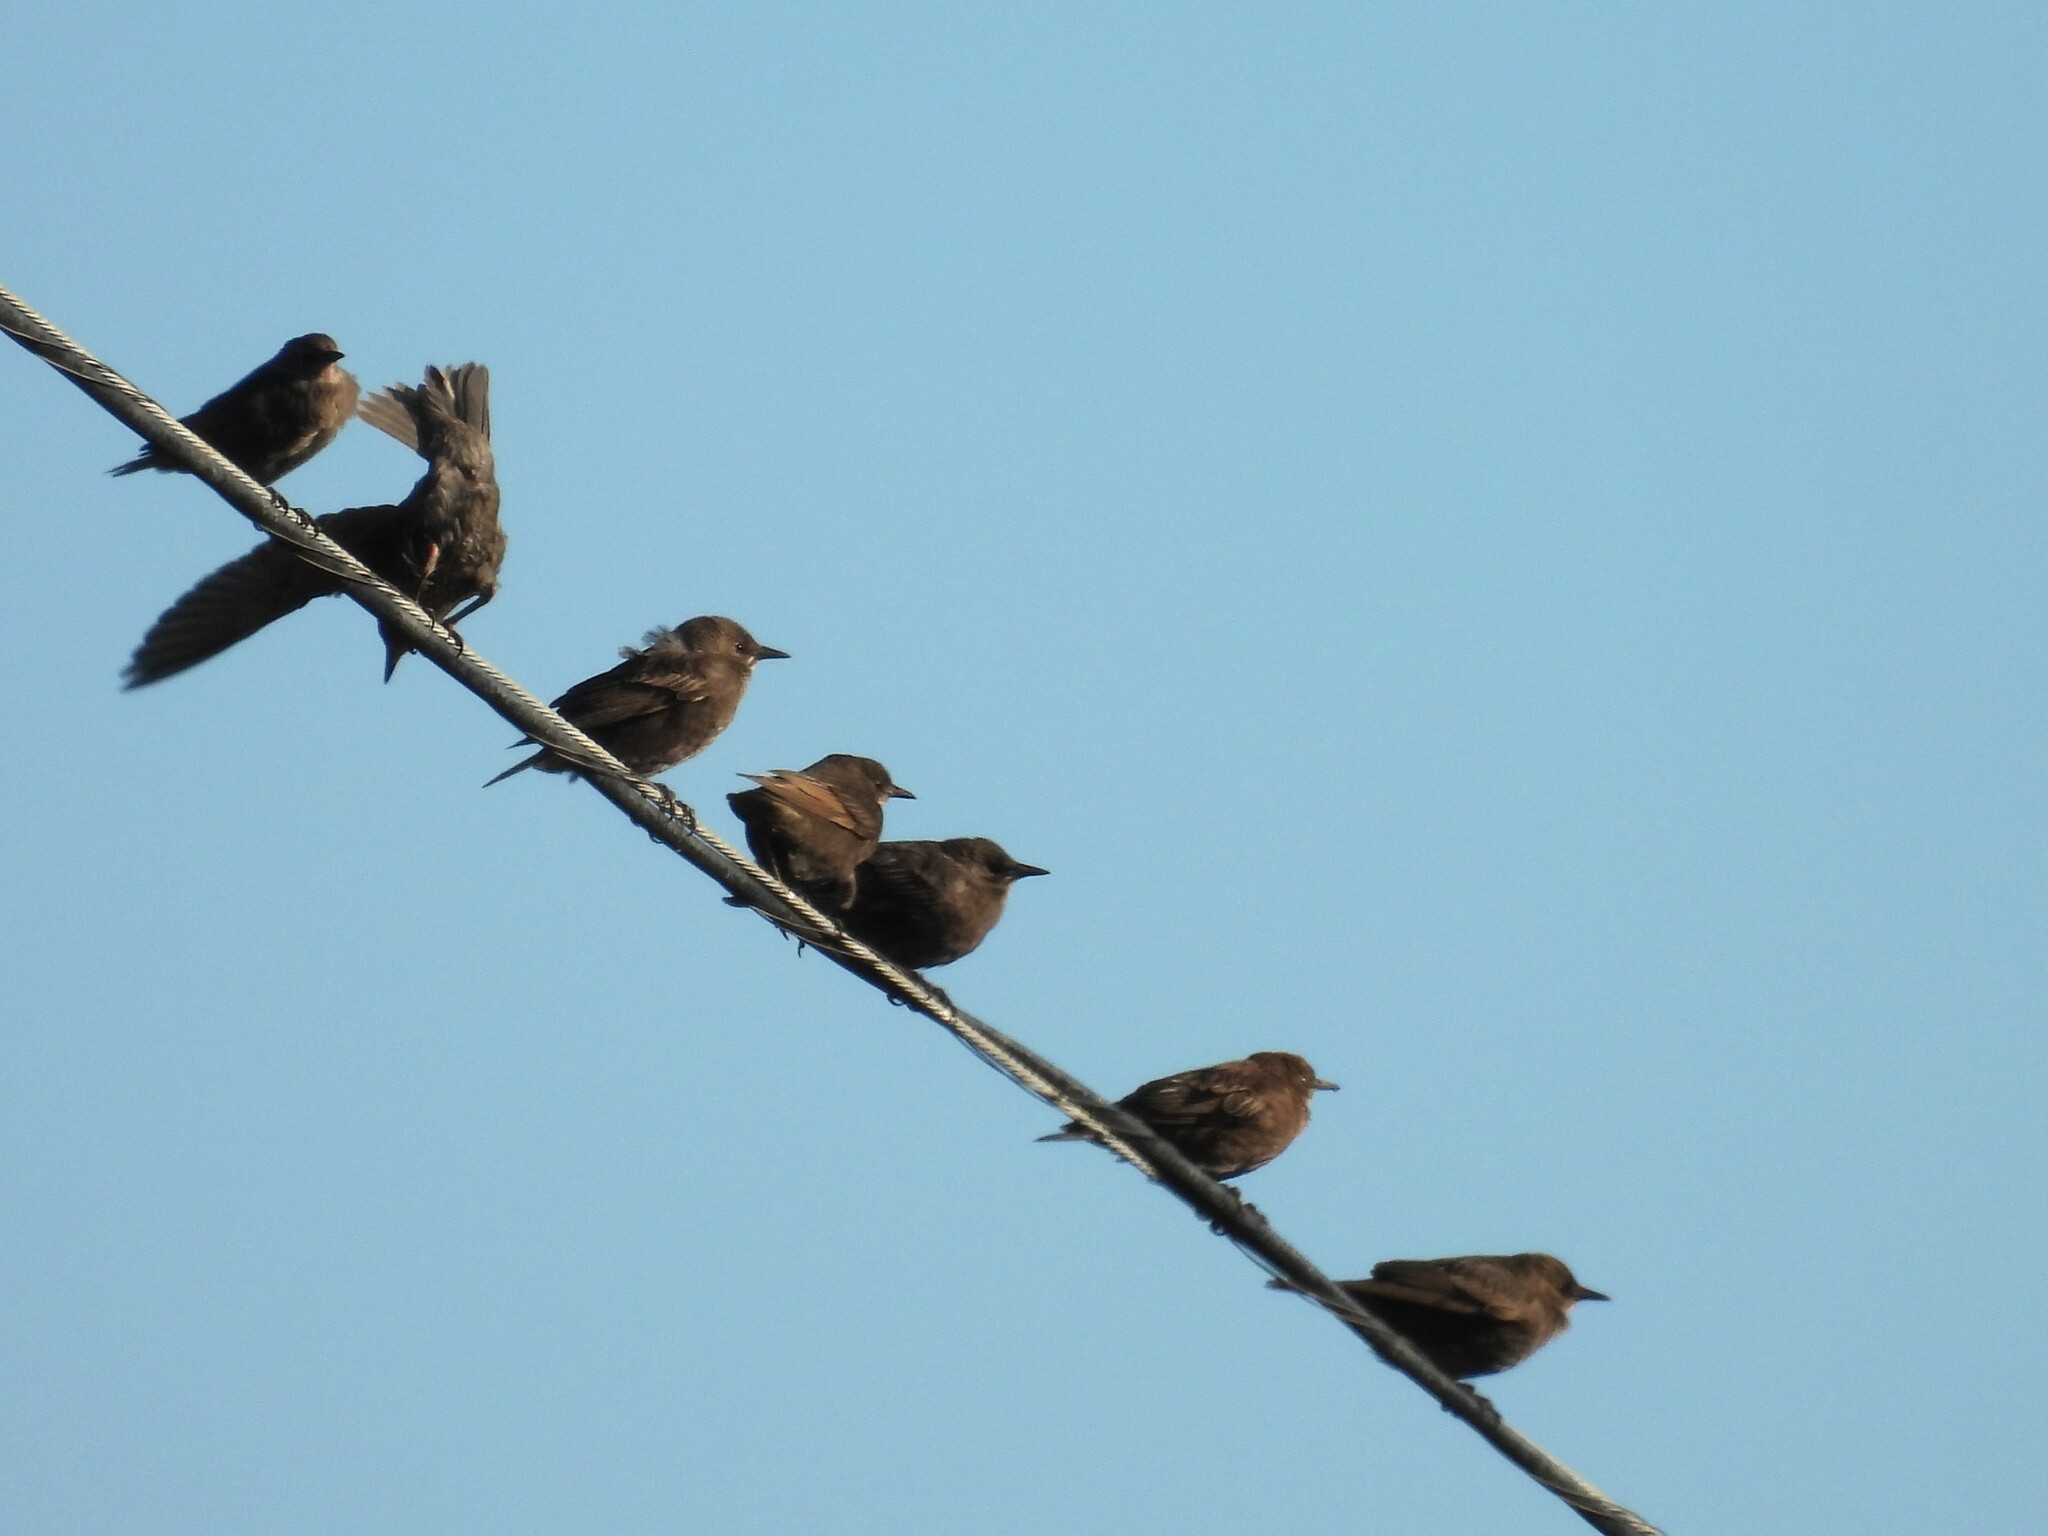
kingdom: Animalia
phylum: Chordata
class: Aves
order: Passeriformes
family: Sturnidae
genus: Sturnus
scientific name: Sturnus vulgaris
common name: Common starling
